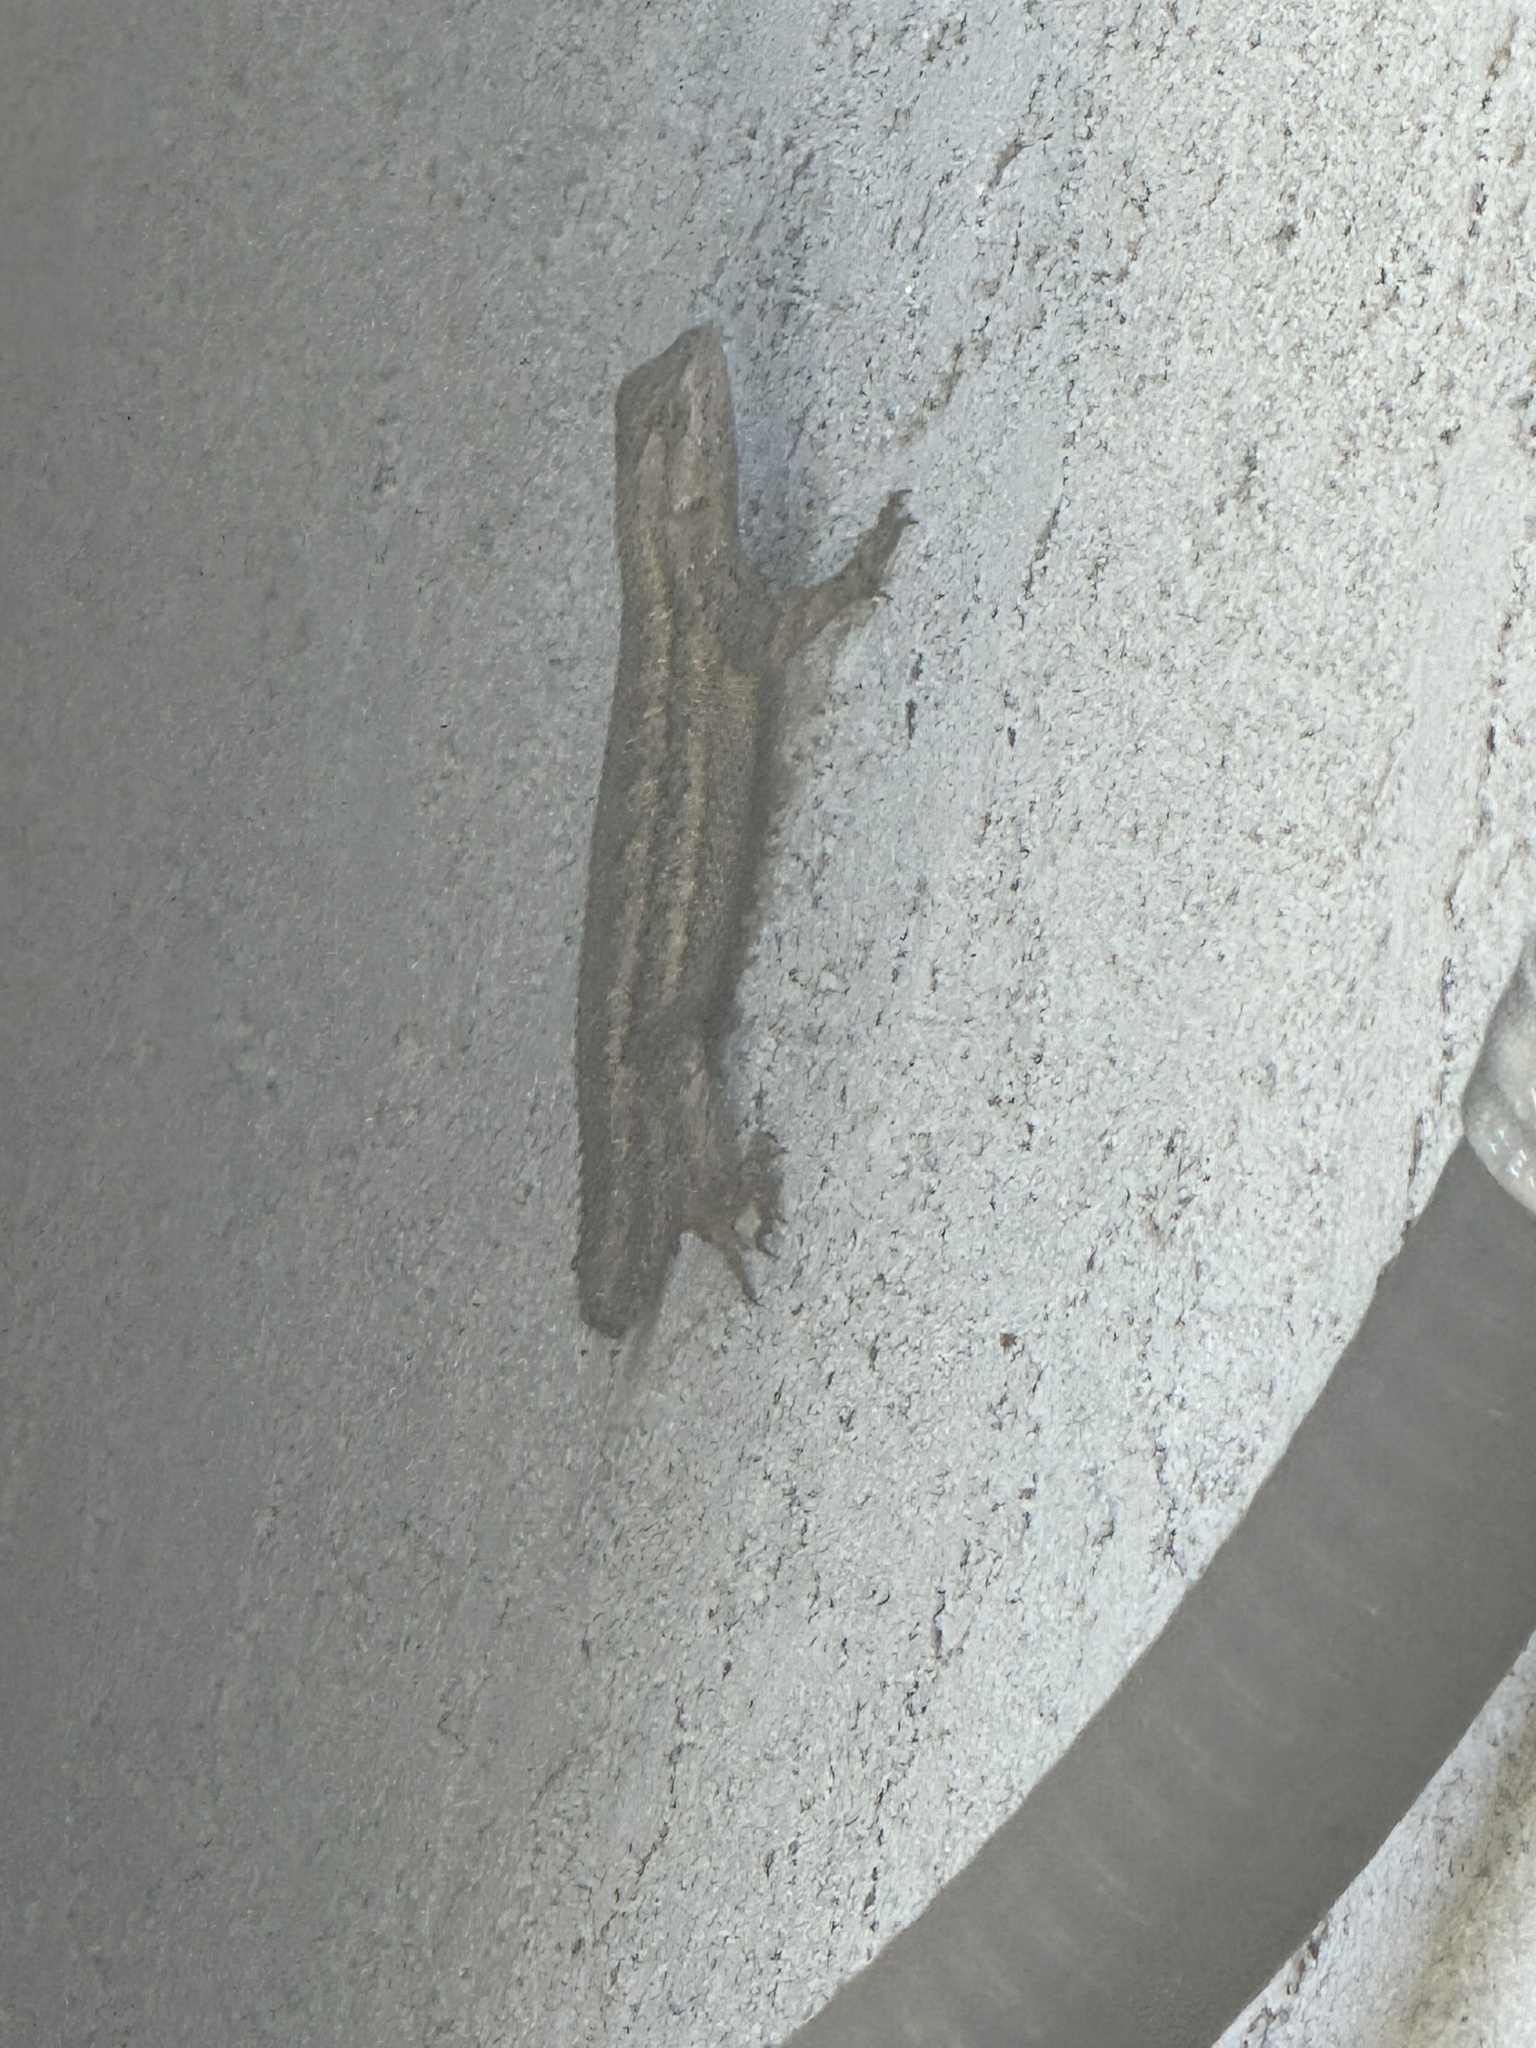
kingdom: Animalia
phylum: Chordata
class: Squamata
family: Phrynosomatidae
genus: Sceloporus
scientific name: Sceloporus occidentalis
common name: Western fence lizard
